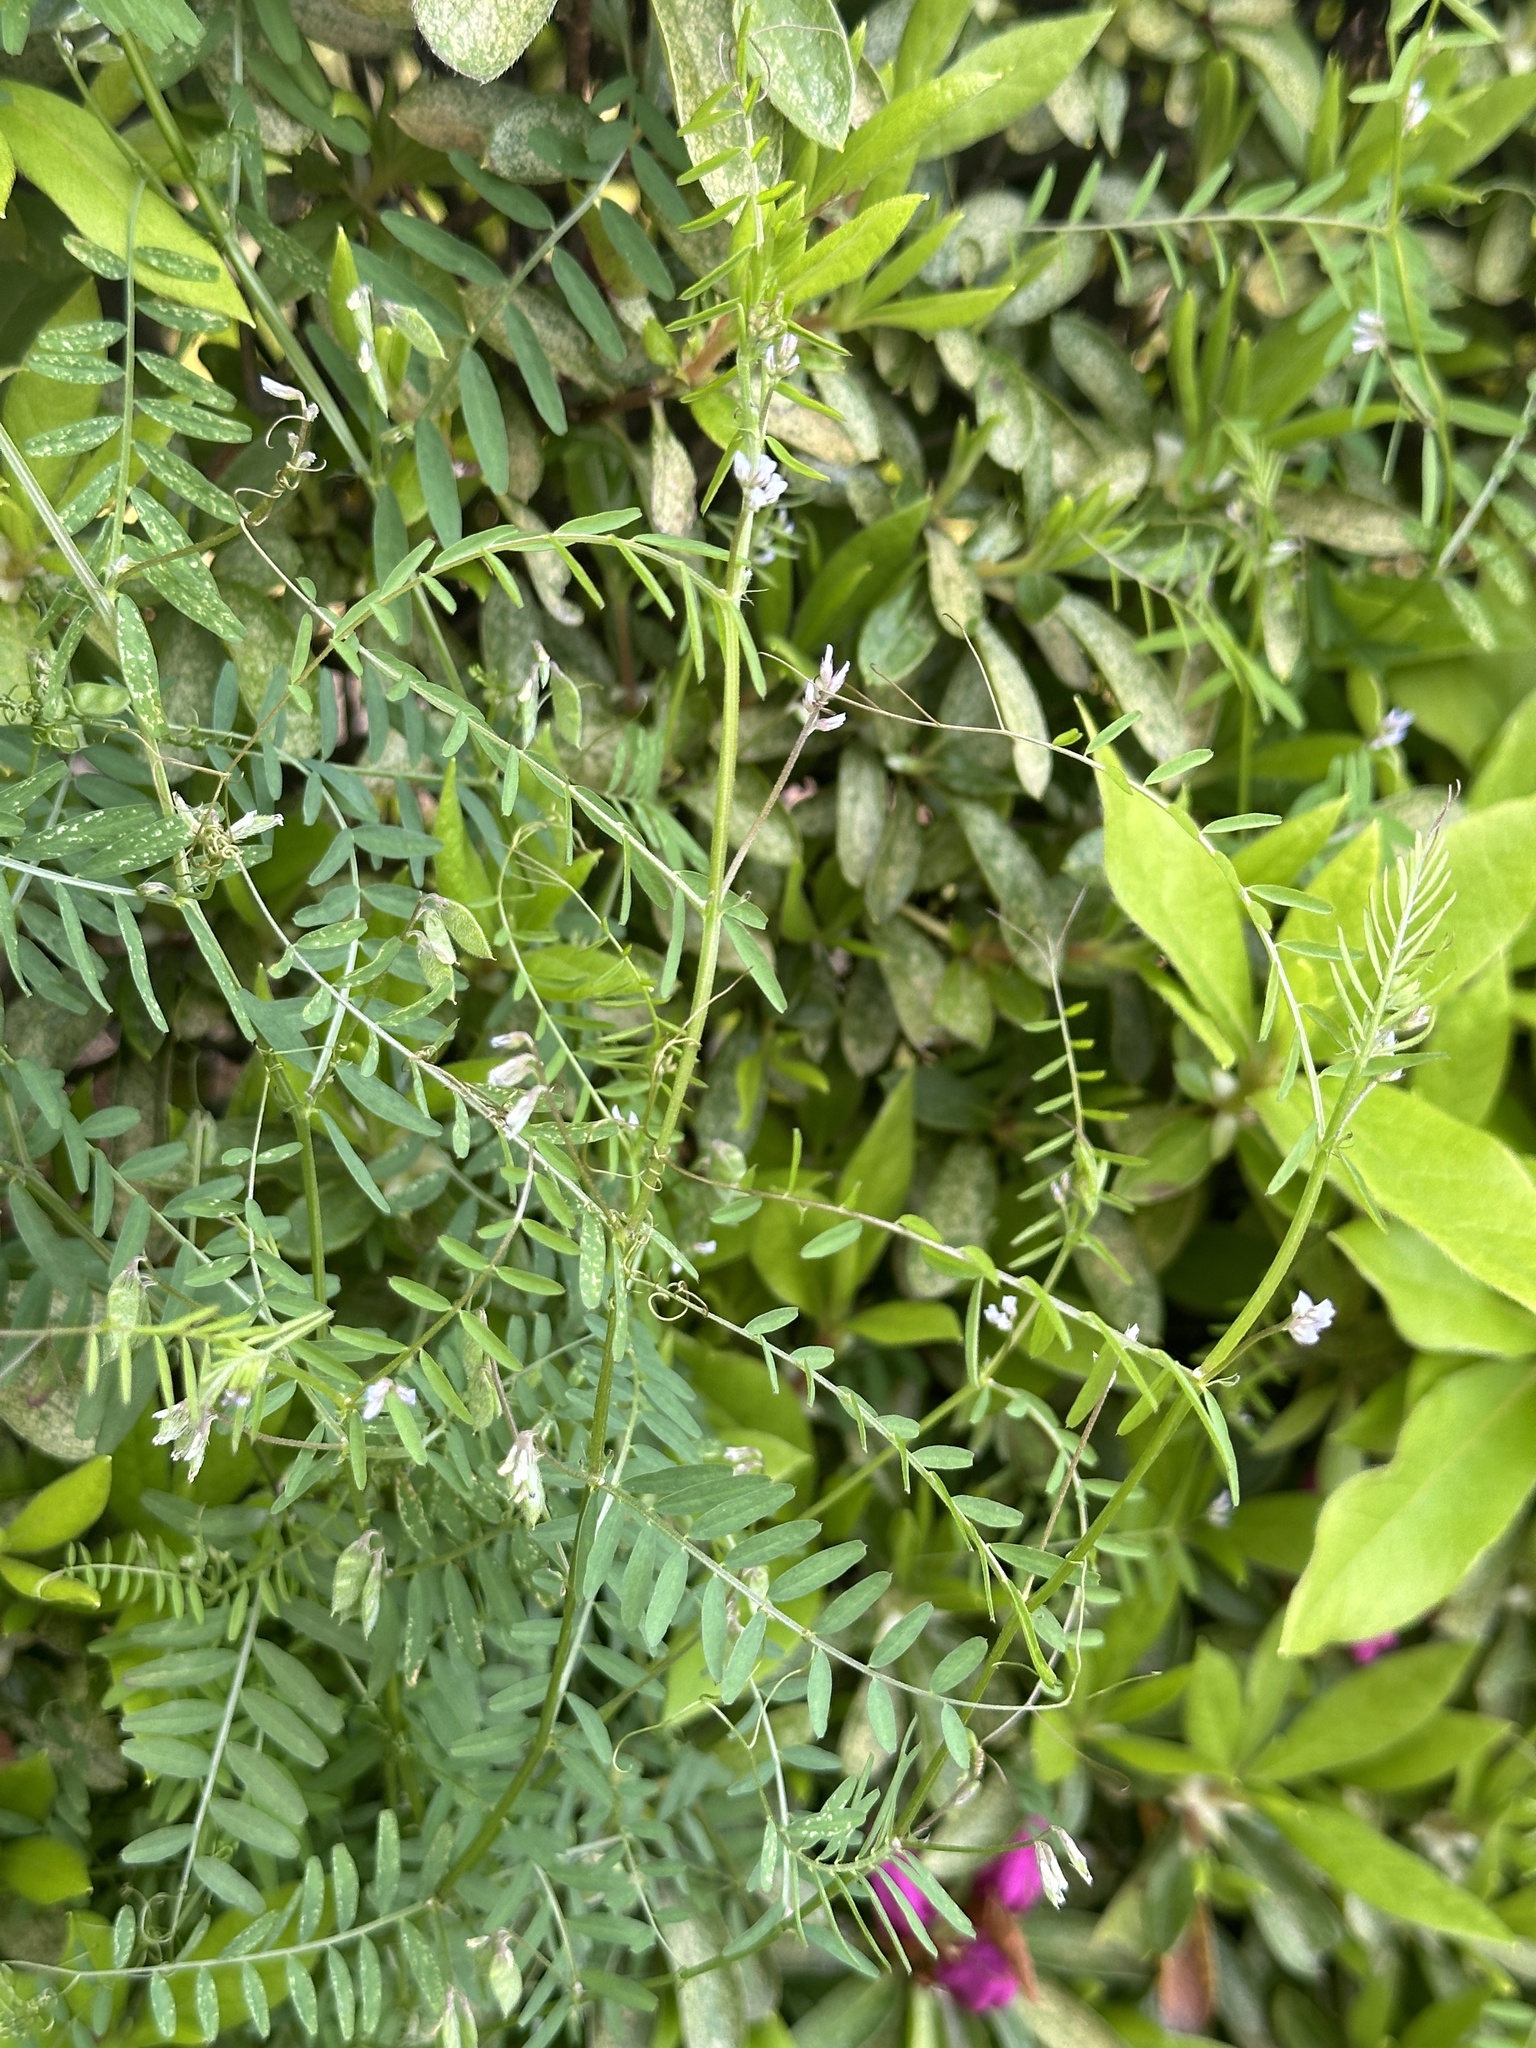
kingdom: Plantae
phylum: Tracheophyta
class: Magnoliopsida
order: Fabales
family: Fabaceae
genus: Vicia
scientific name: Vicia hirsuta
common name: Tiny vetch
